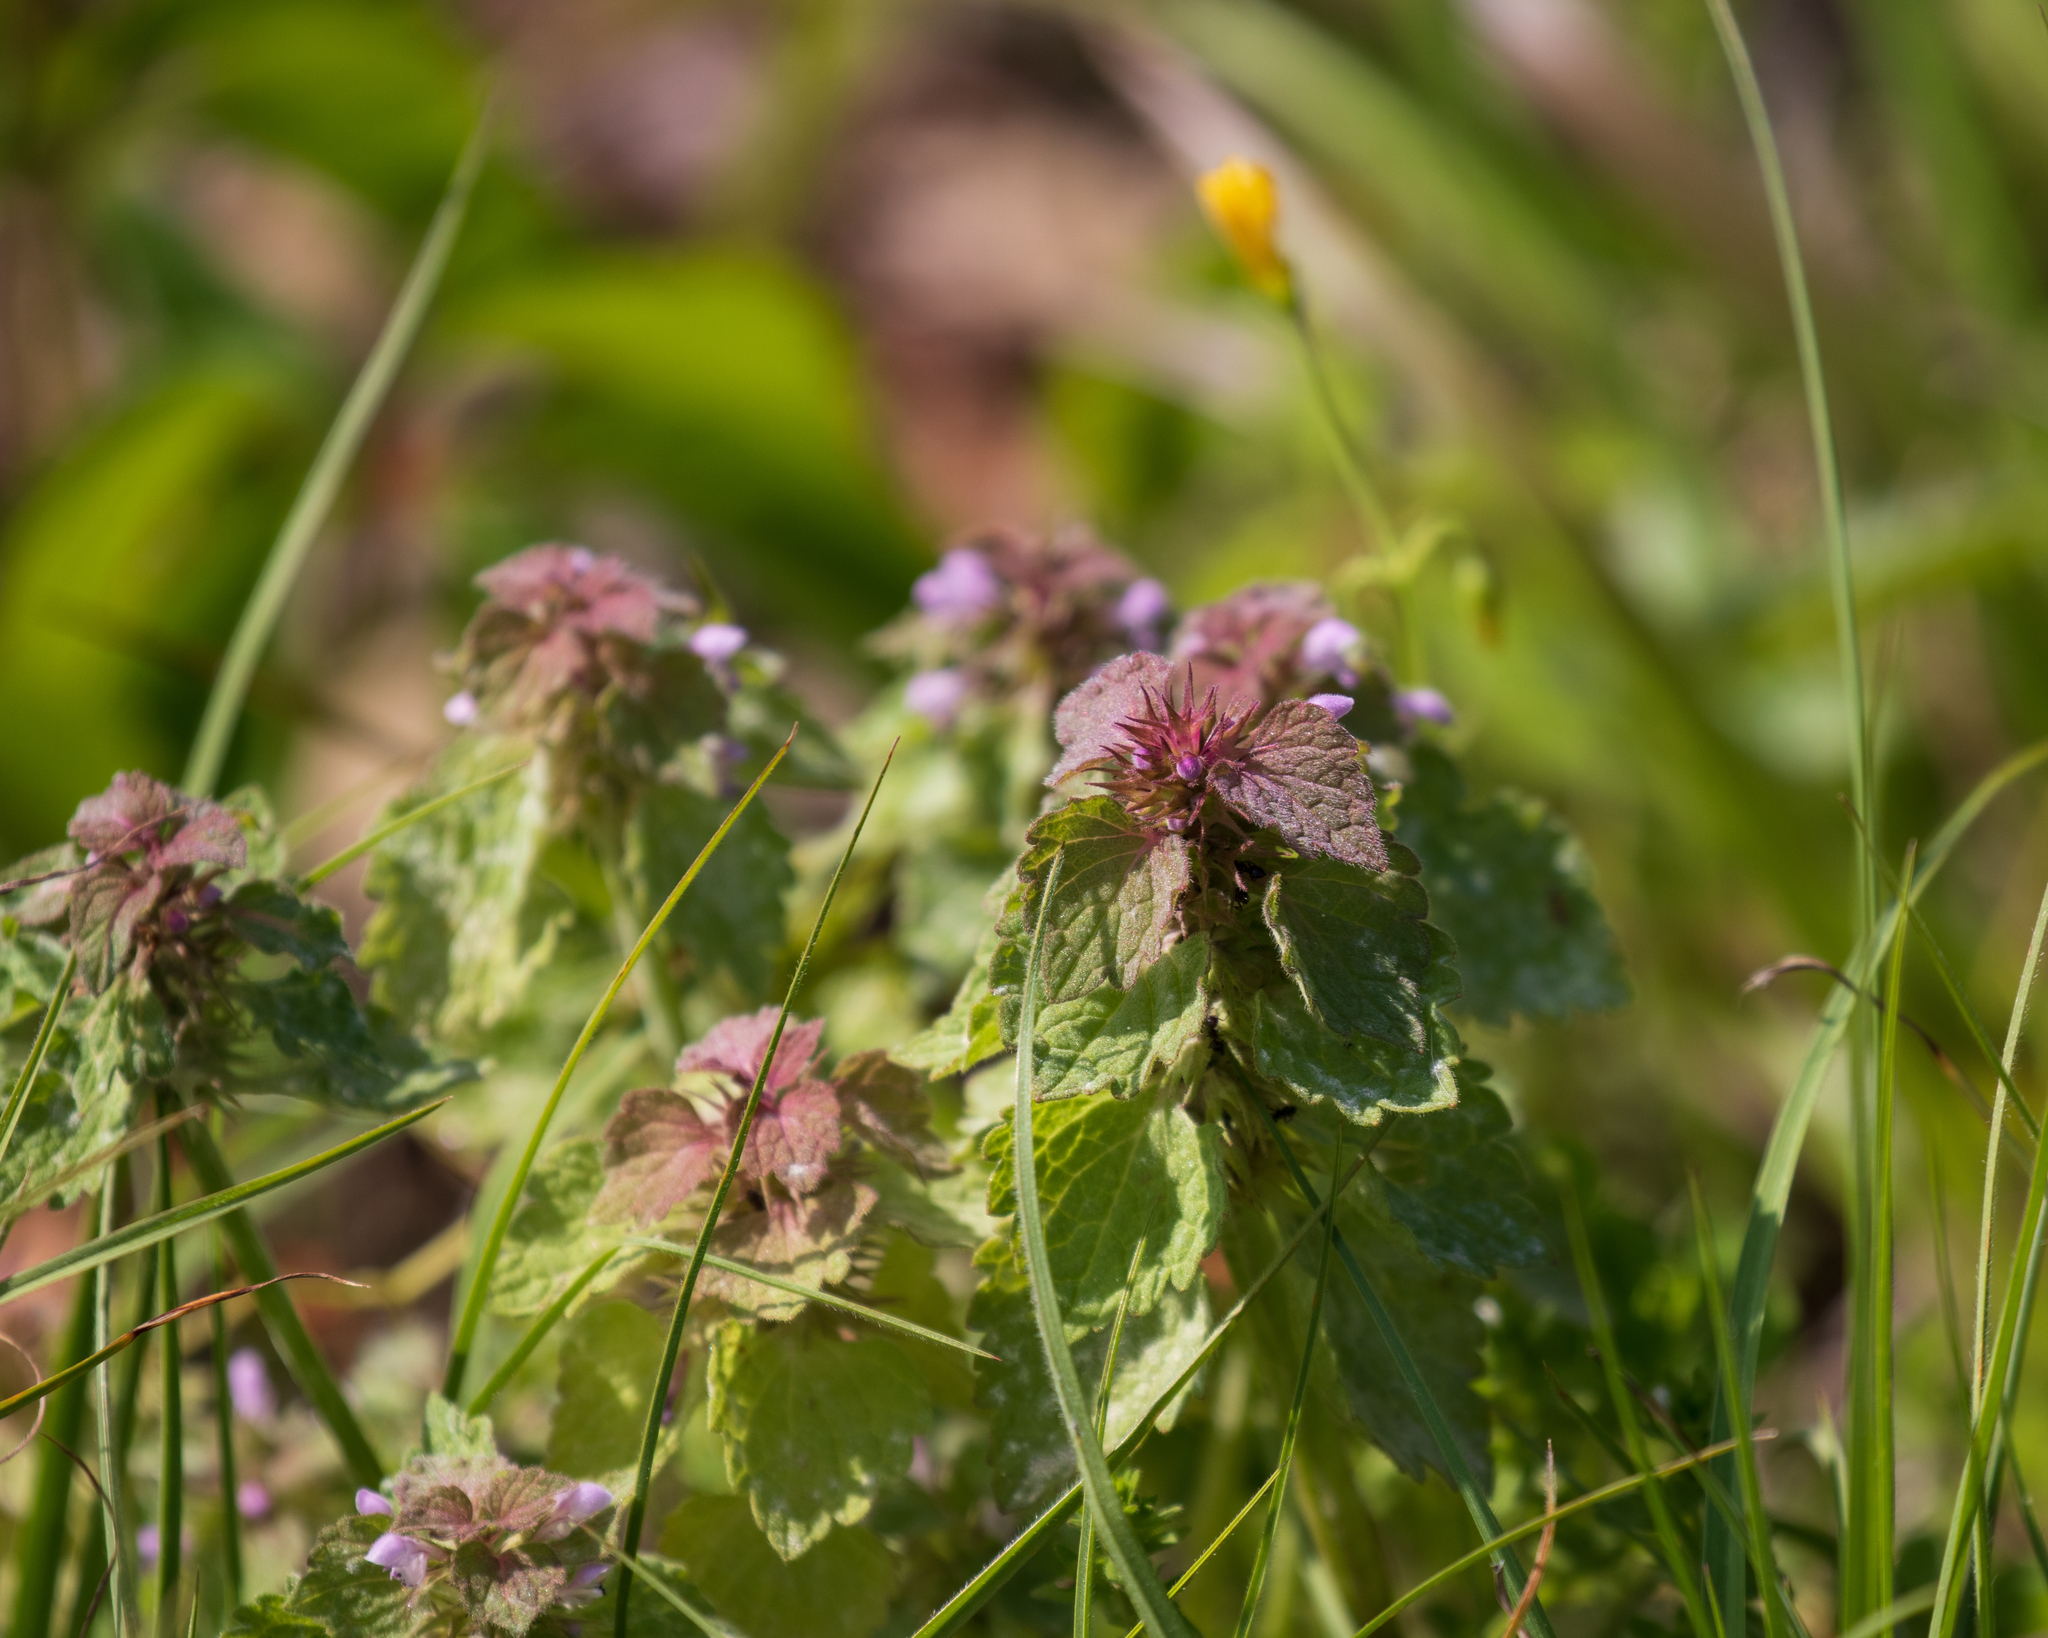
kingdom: Plantae
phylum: Tracheophyta
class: Magnoliopsida
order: Lamiales
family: Lamiaceae
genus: Lamium
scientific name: Lamium purpureum
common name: Red dead-nettle
